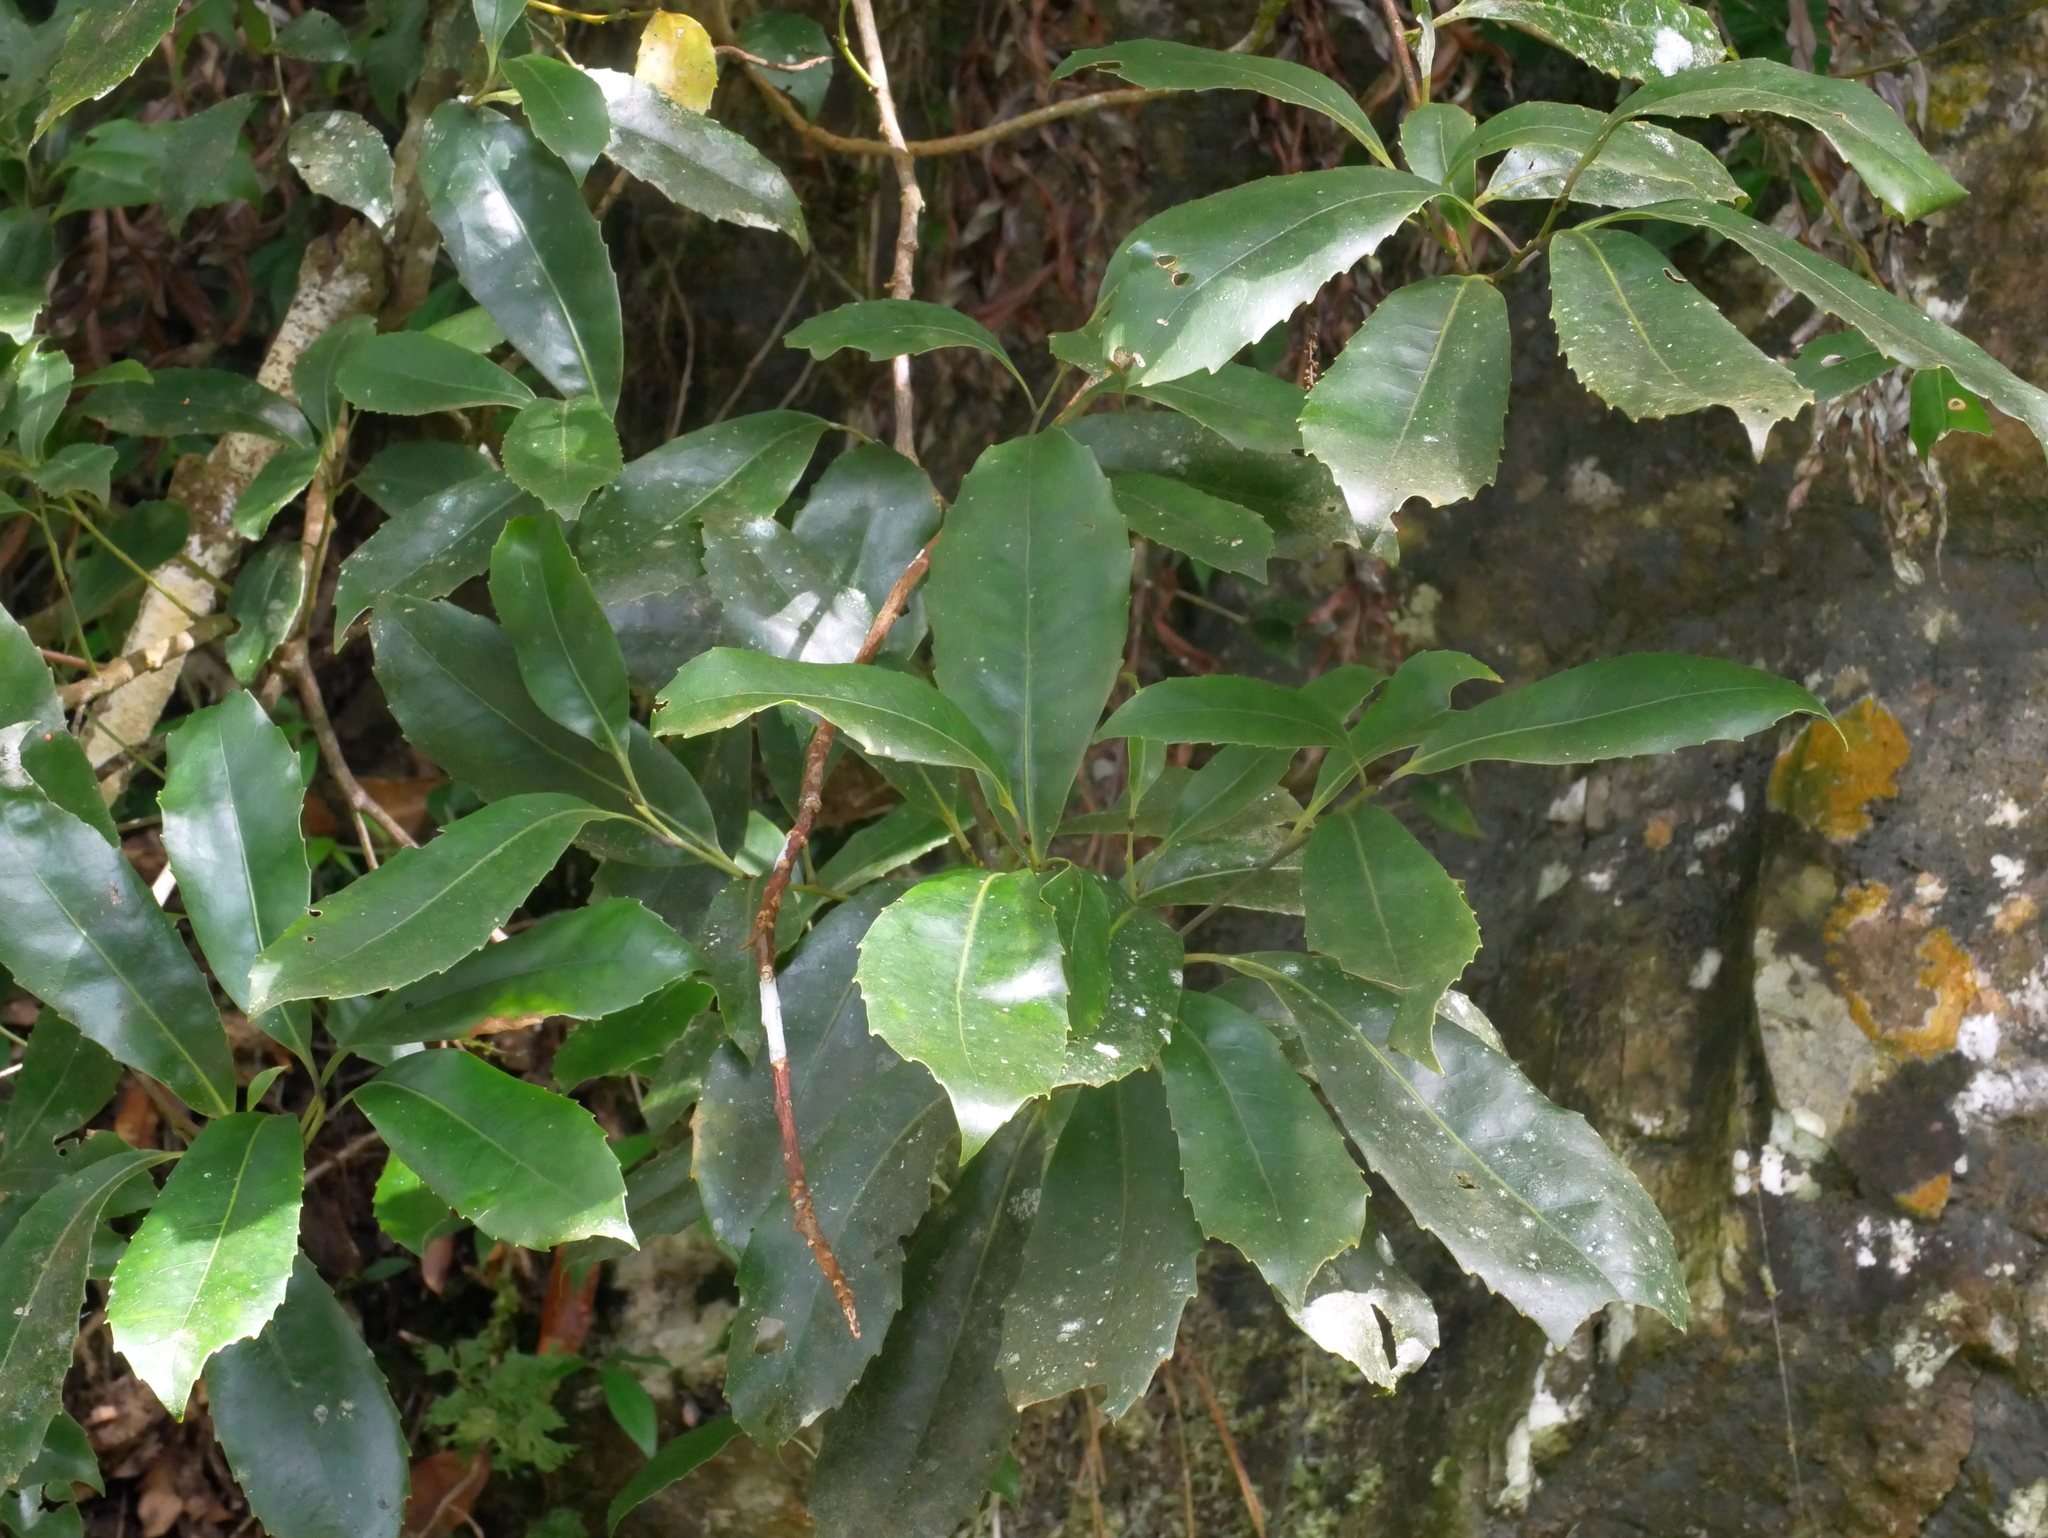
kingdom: Plantae
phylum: Tracheophyta
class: Magnoliopsida
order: Proteales
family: Proteaceae
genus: Helicia
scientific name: Helicia rengetiensis
